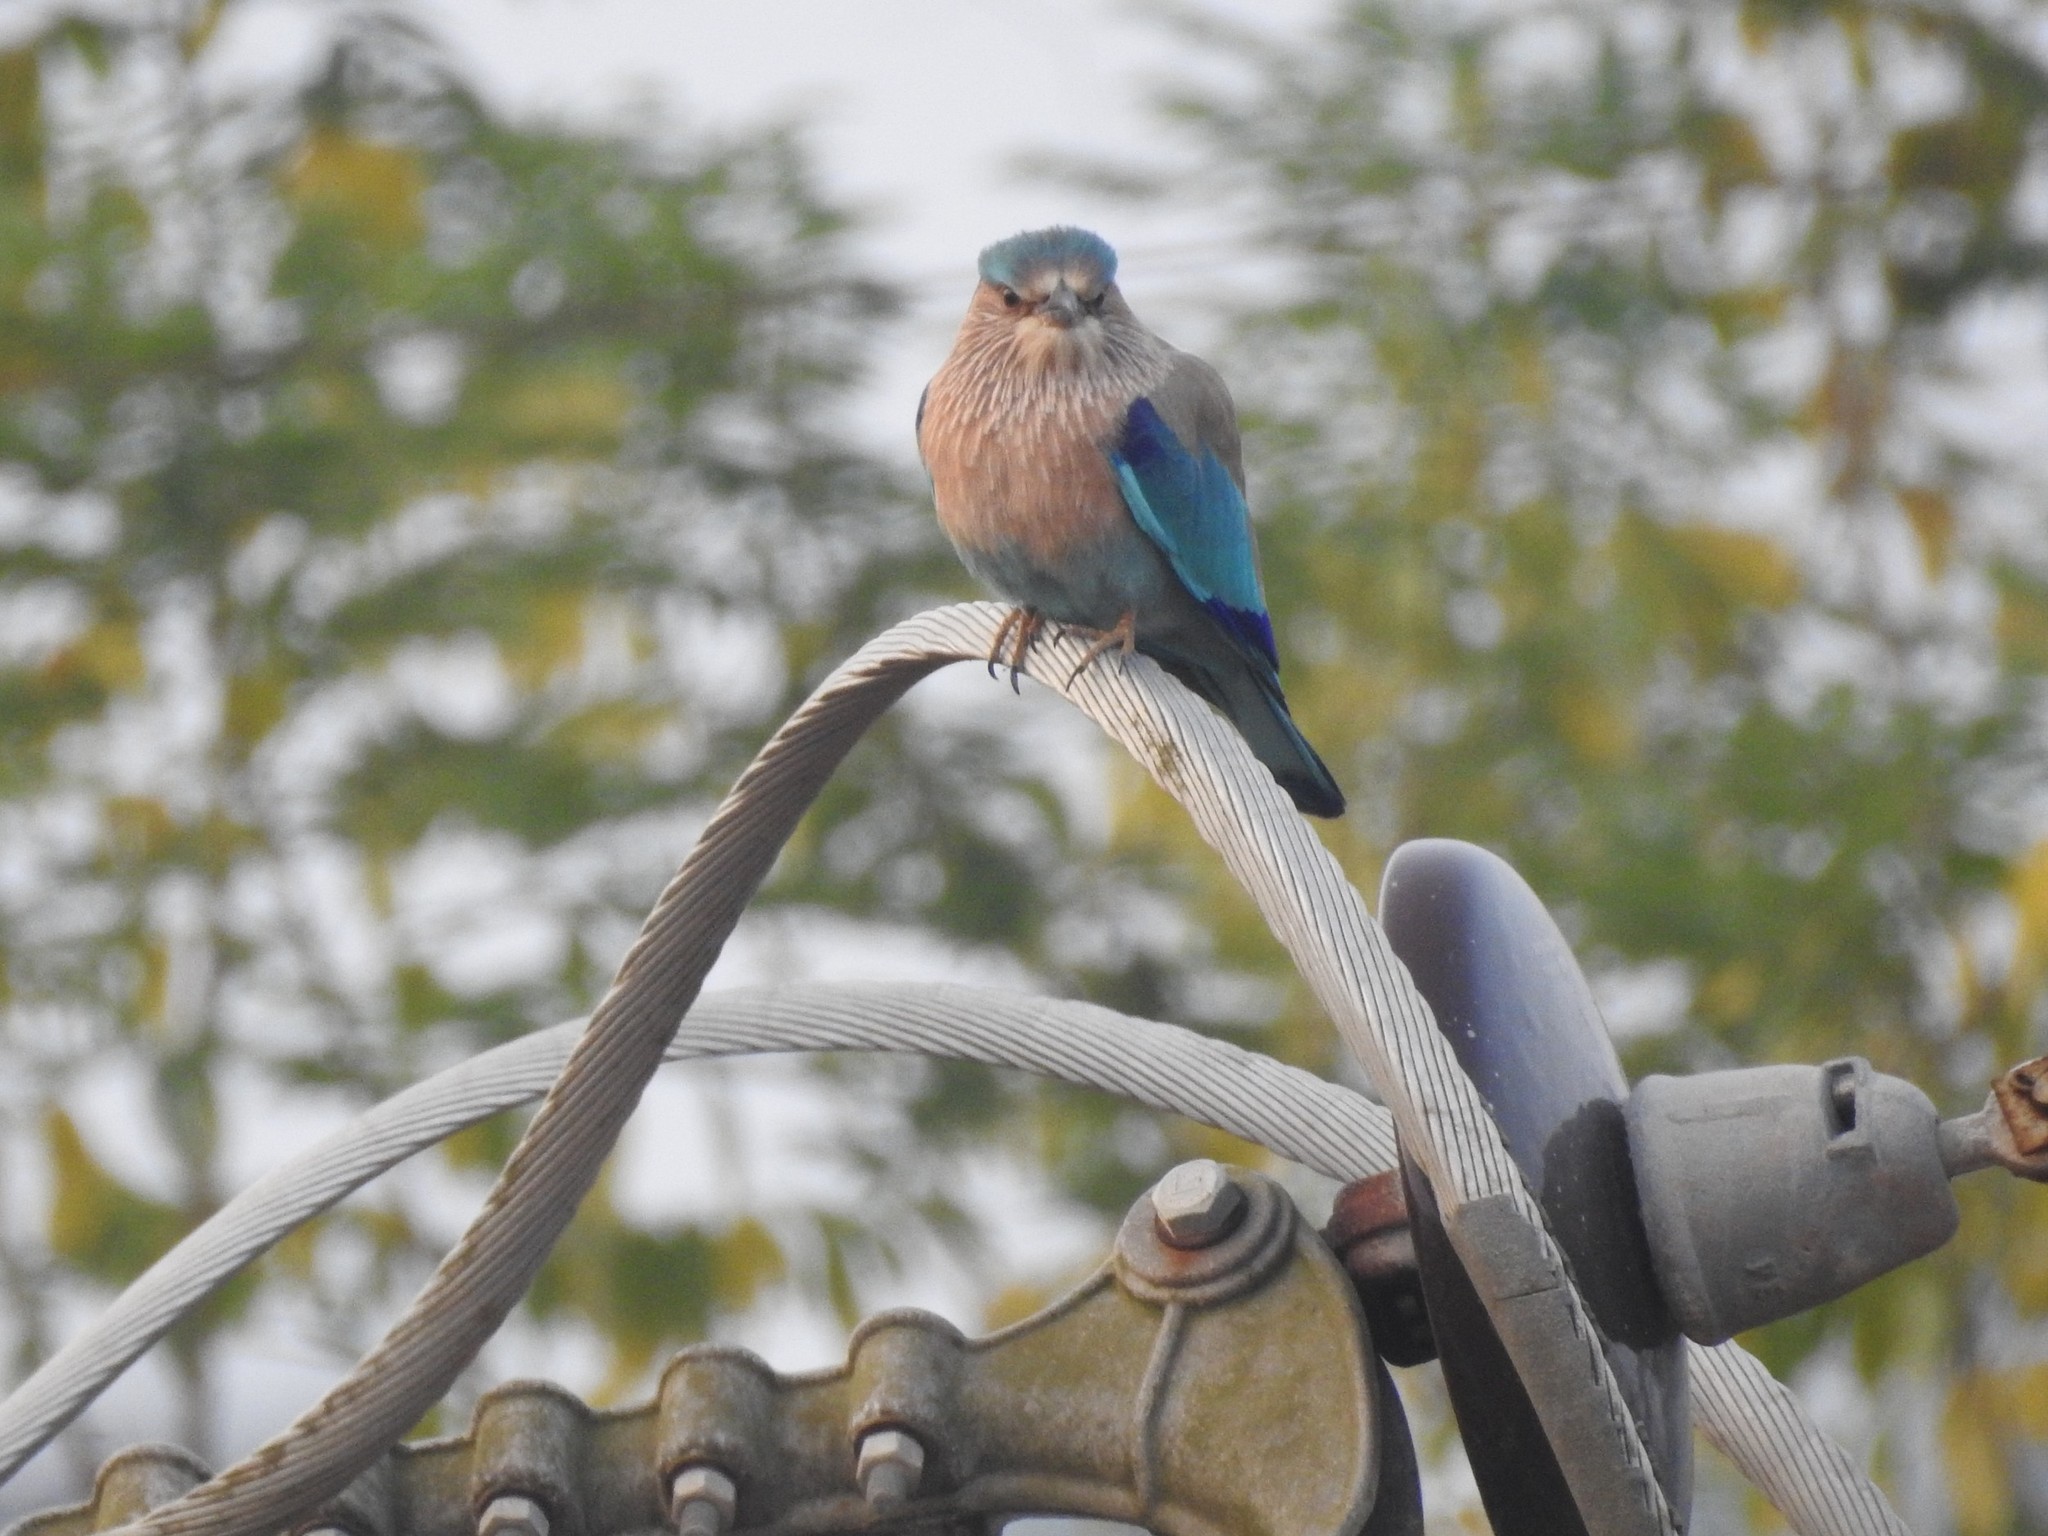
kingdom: Animalia
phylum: Chordata
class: Aves
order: Coraciiformes
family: Coraciidae
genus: Coracias
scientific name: Coracias benghalensis
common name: Indian roller
